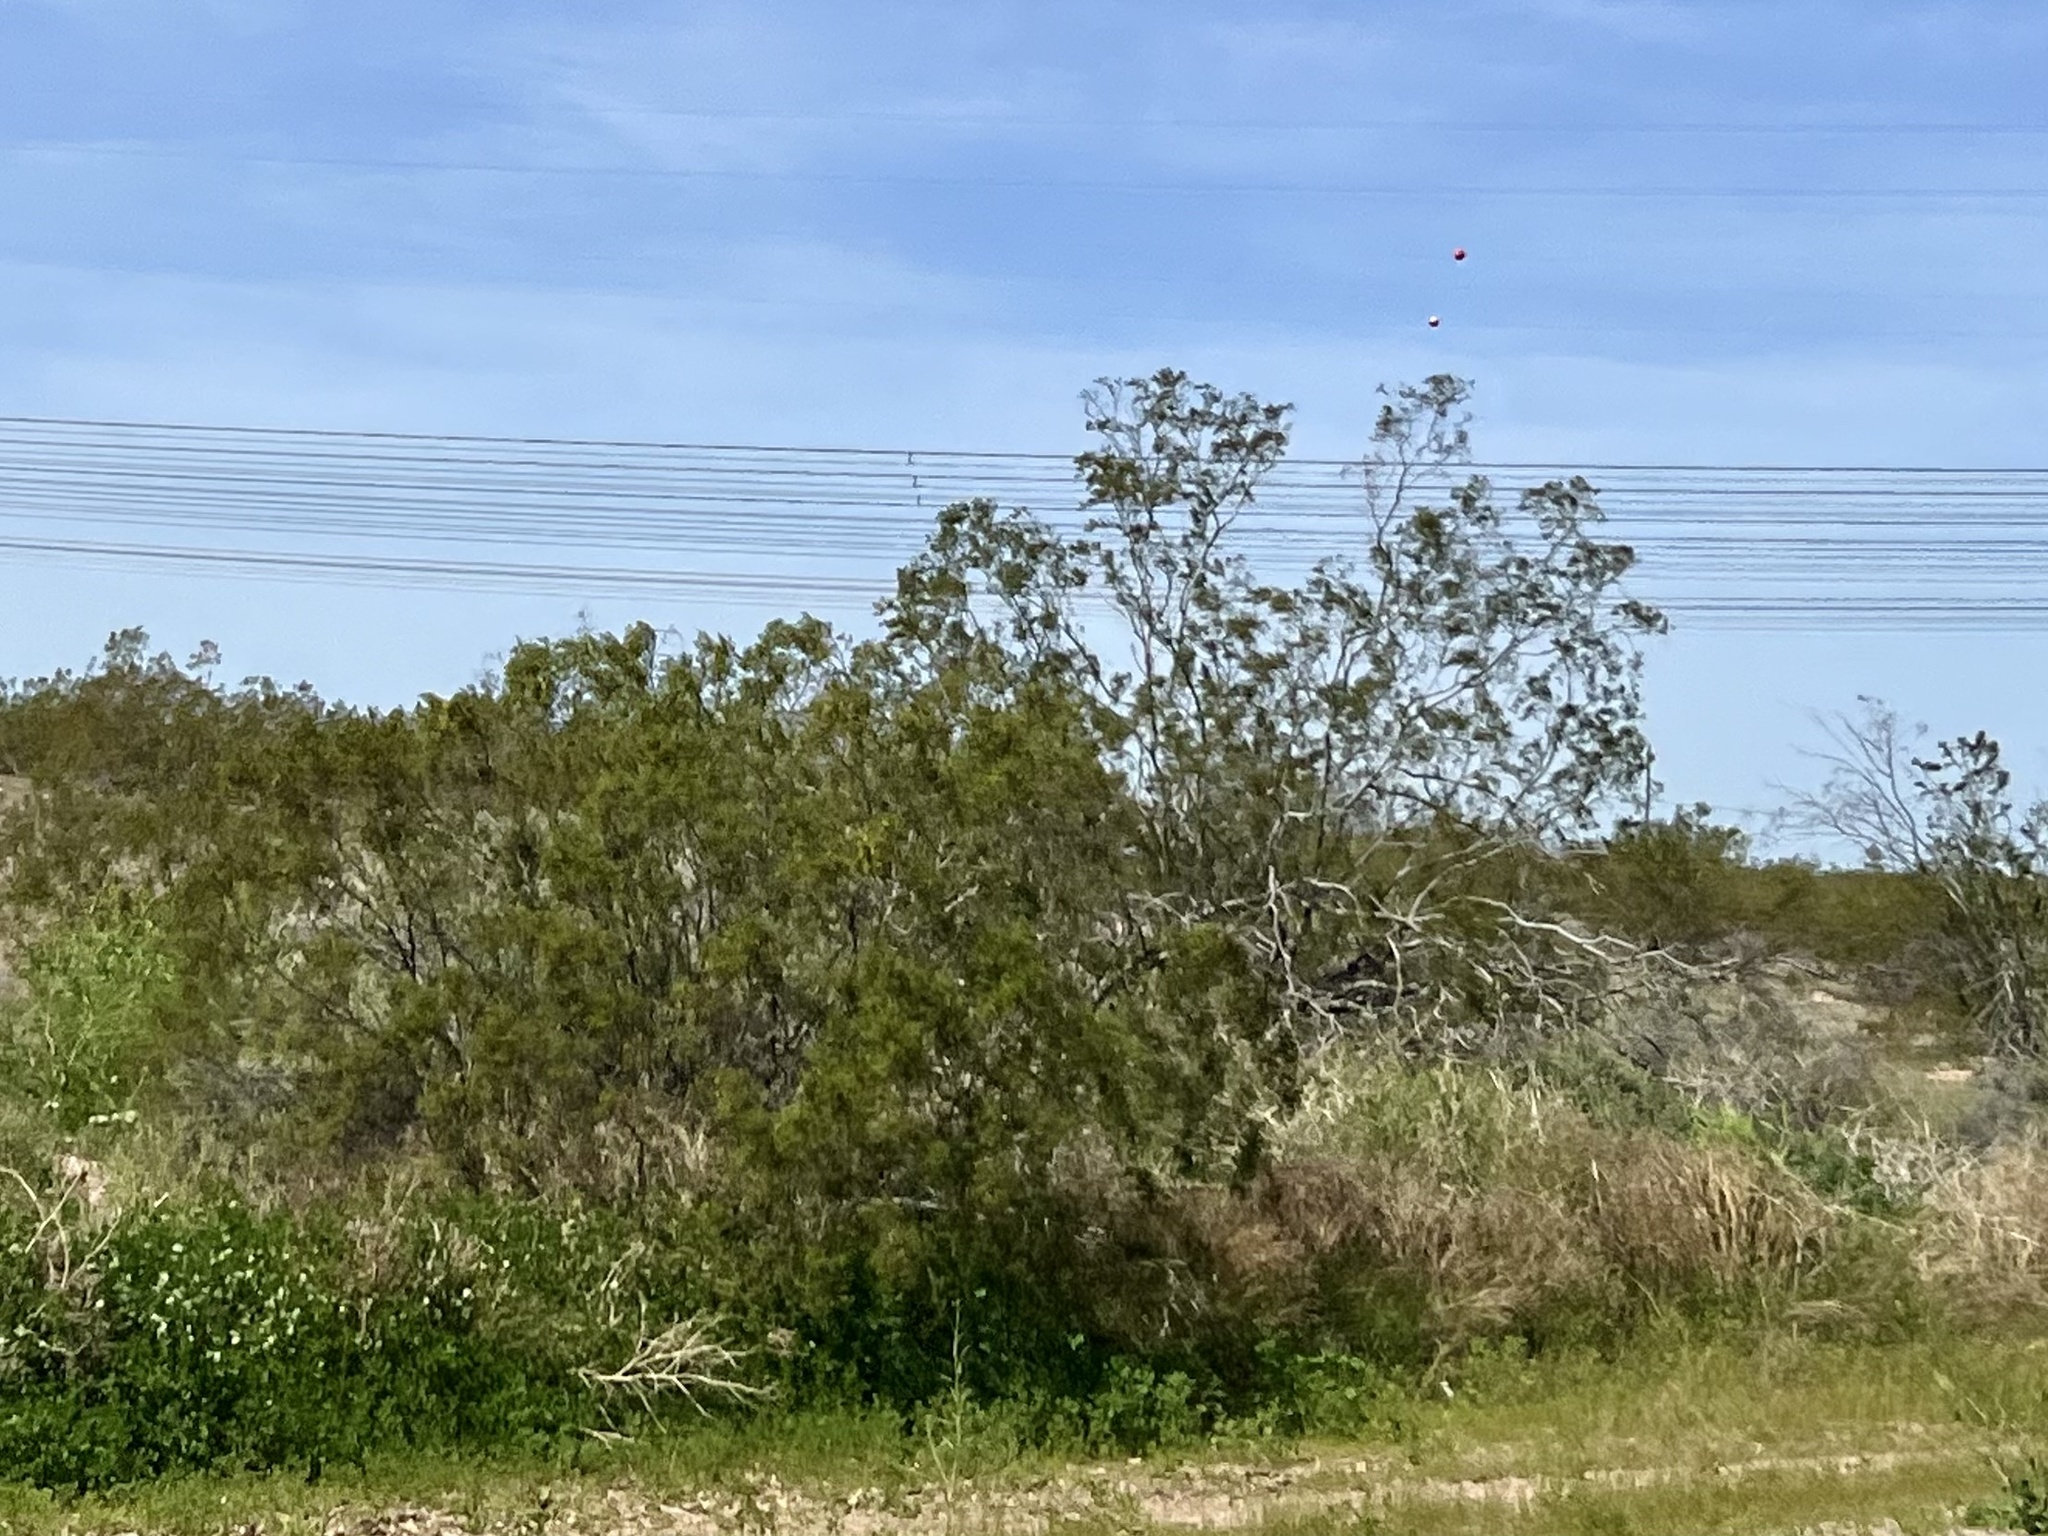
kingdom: Plantae
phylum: Tracheophyta
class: Magnoliopsida
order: Zygophyllales
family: Zygophyllaceae
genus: Larrea
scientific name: Larrea tridentata
